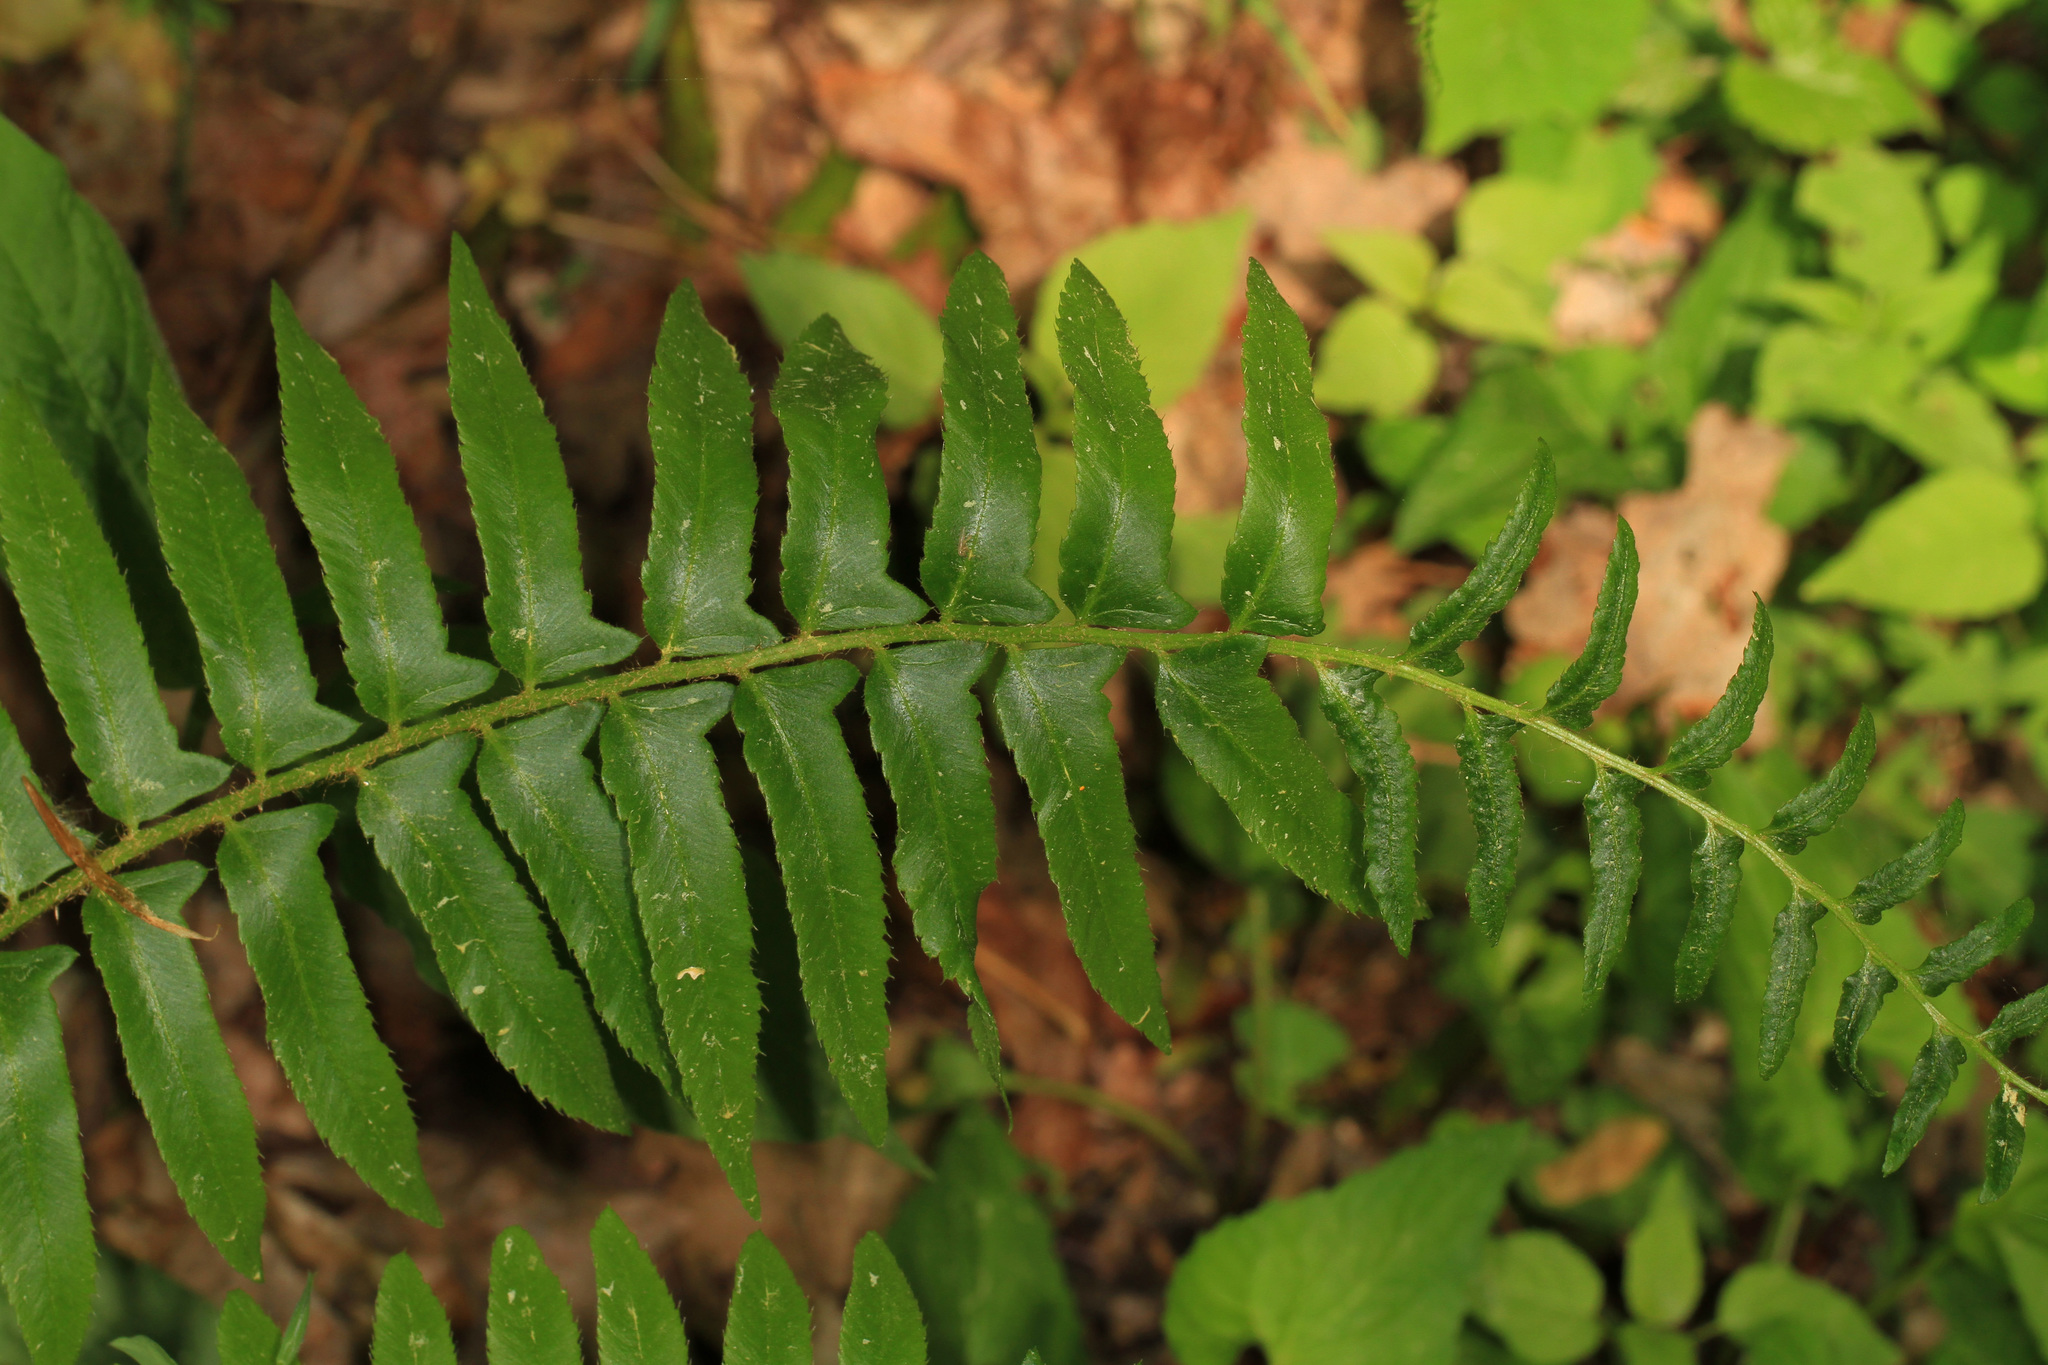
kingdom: Plantae
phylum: Tracheophyta
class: Polypodiopsida
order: Polypodiales
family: Dryopteridaceae
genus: Polystichum
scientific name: Polystichum acrostichoides
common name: Christmas fern
